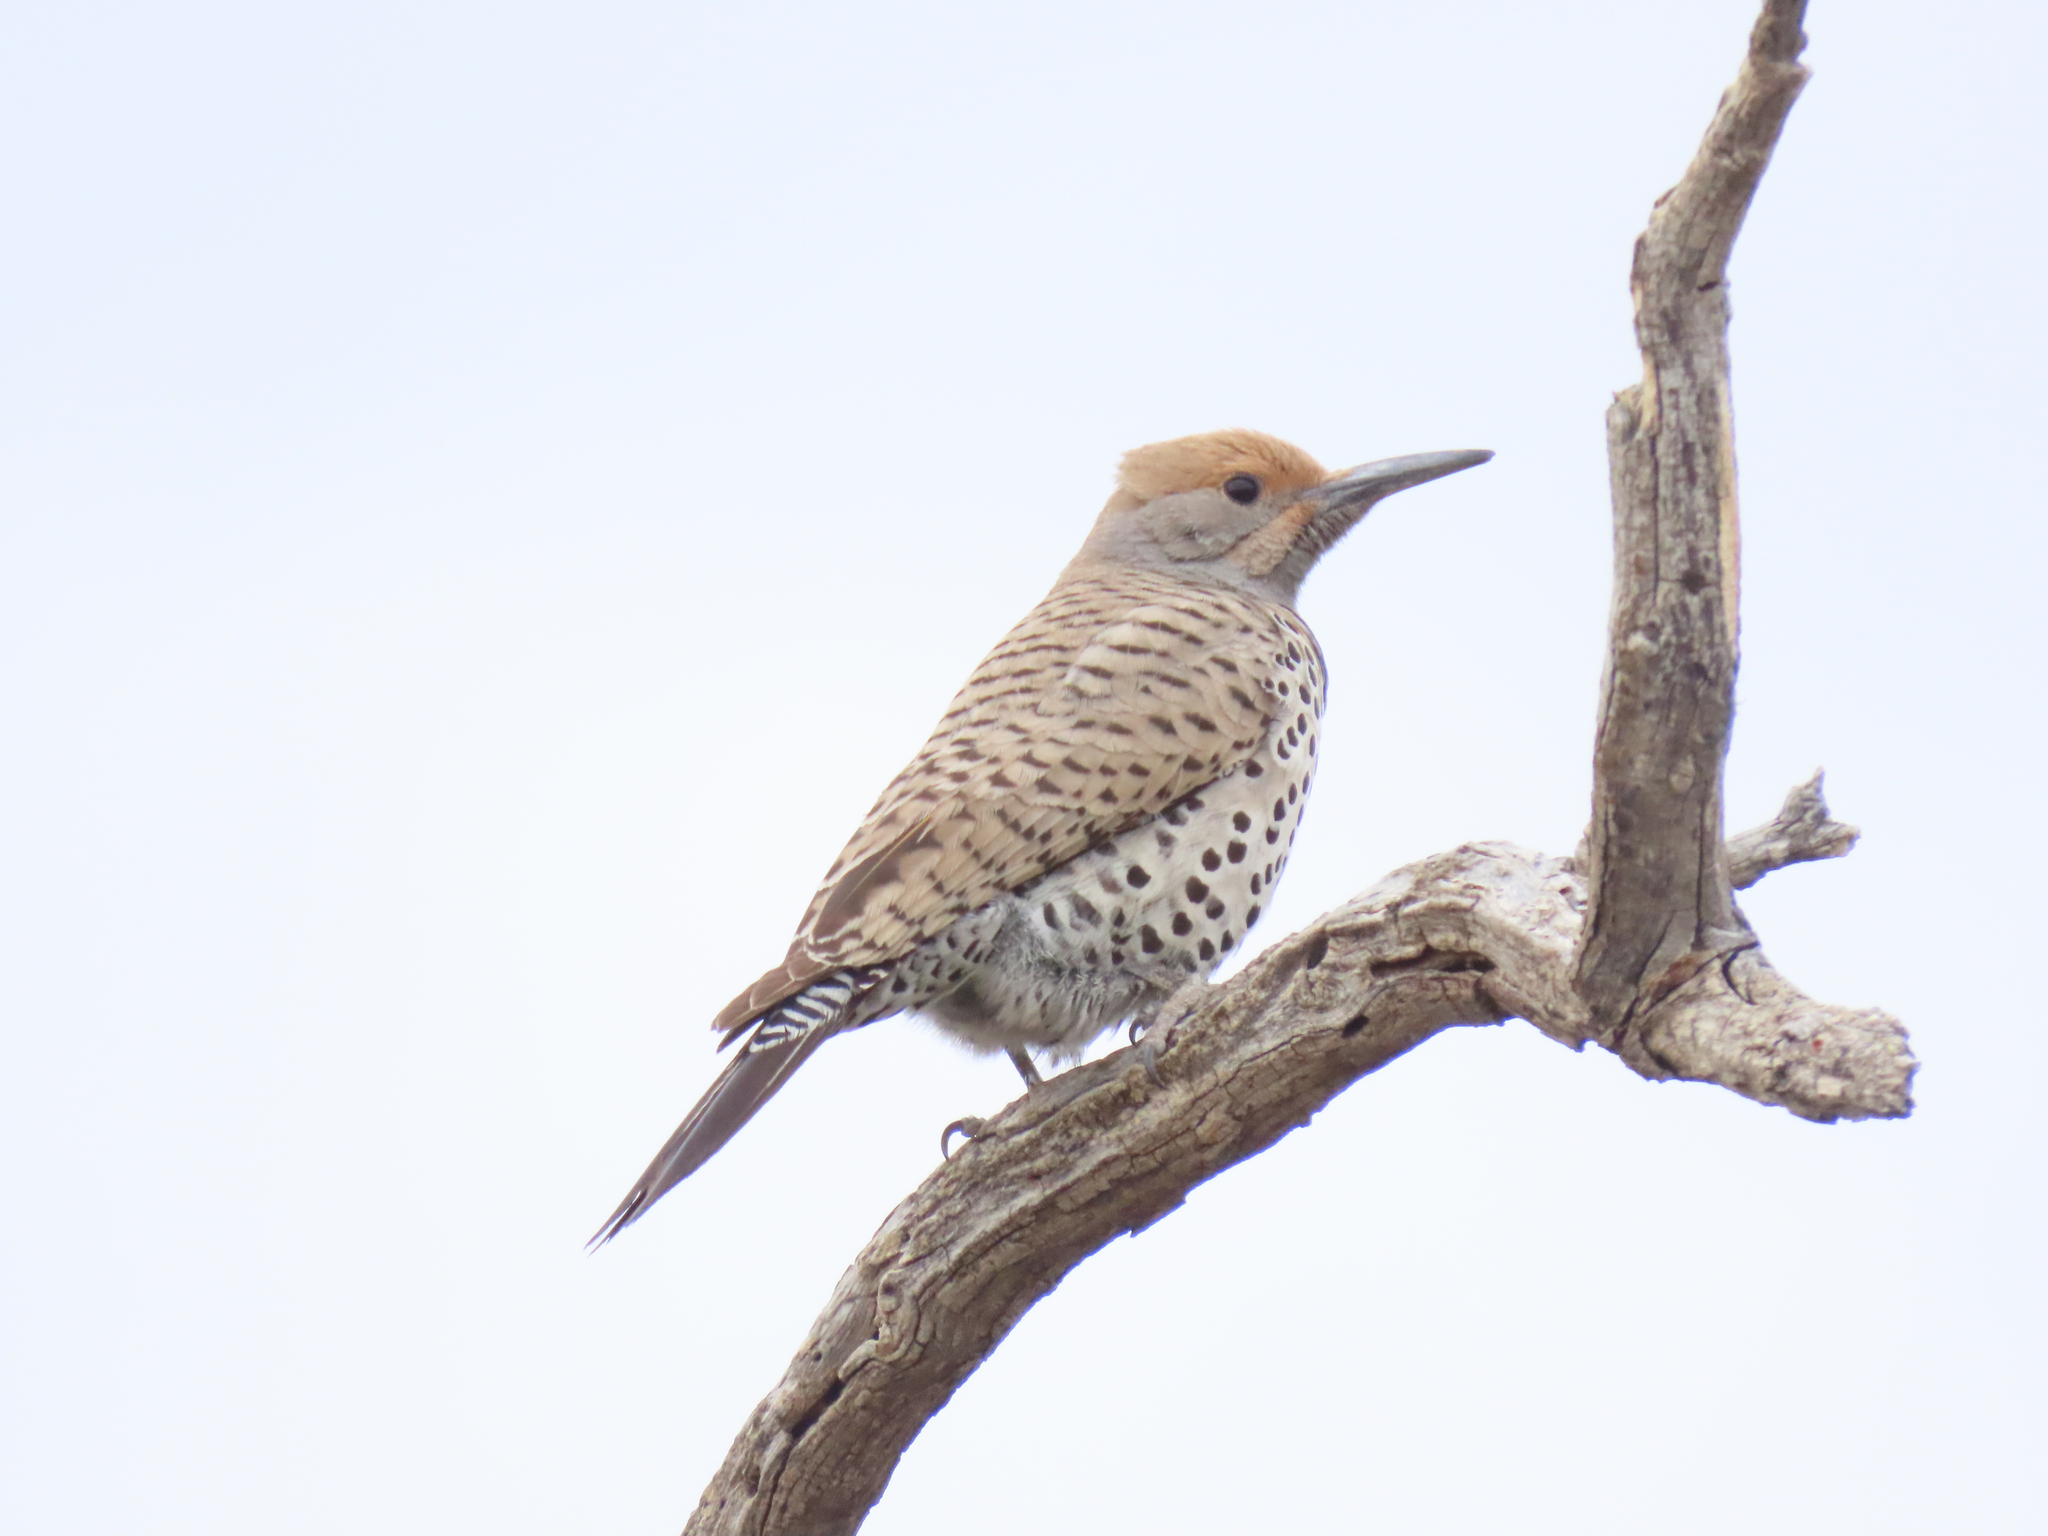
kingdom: Animalia
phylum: Chordata
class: Aves
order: Piciformes
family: Picidae
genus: Colaptes
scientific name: Colaptes chrysoides
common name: Gilded flicker
